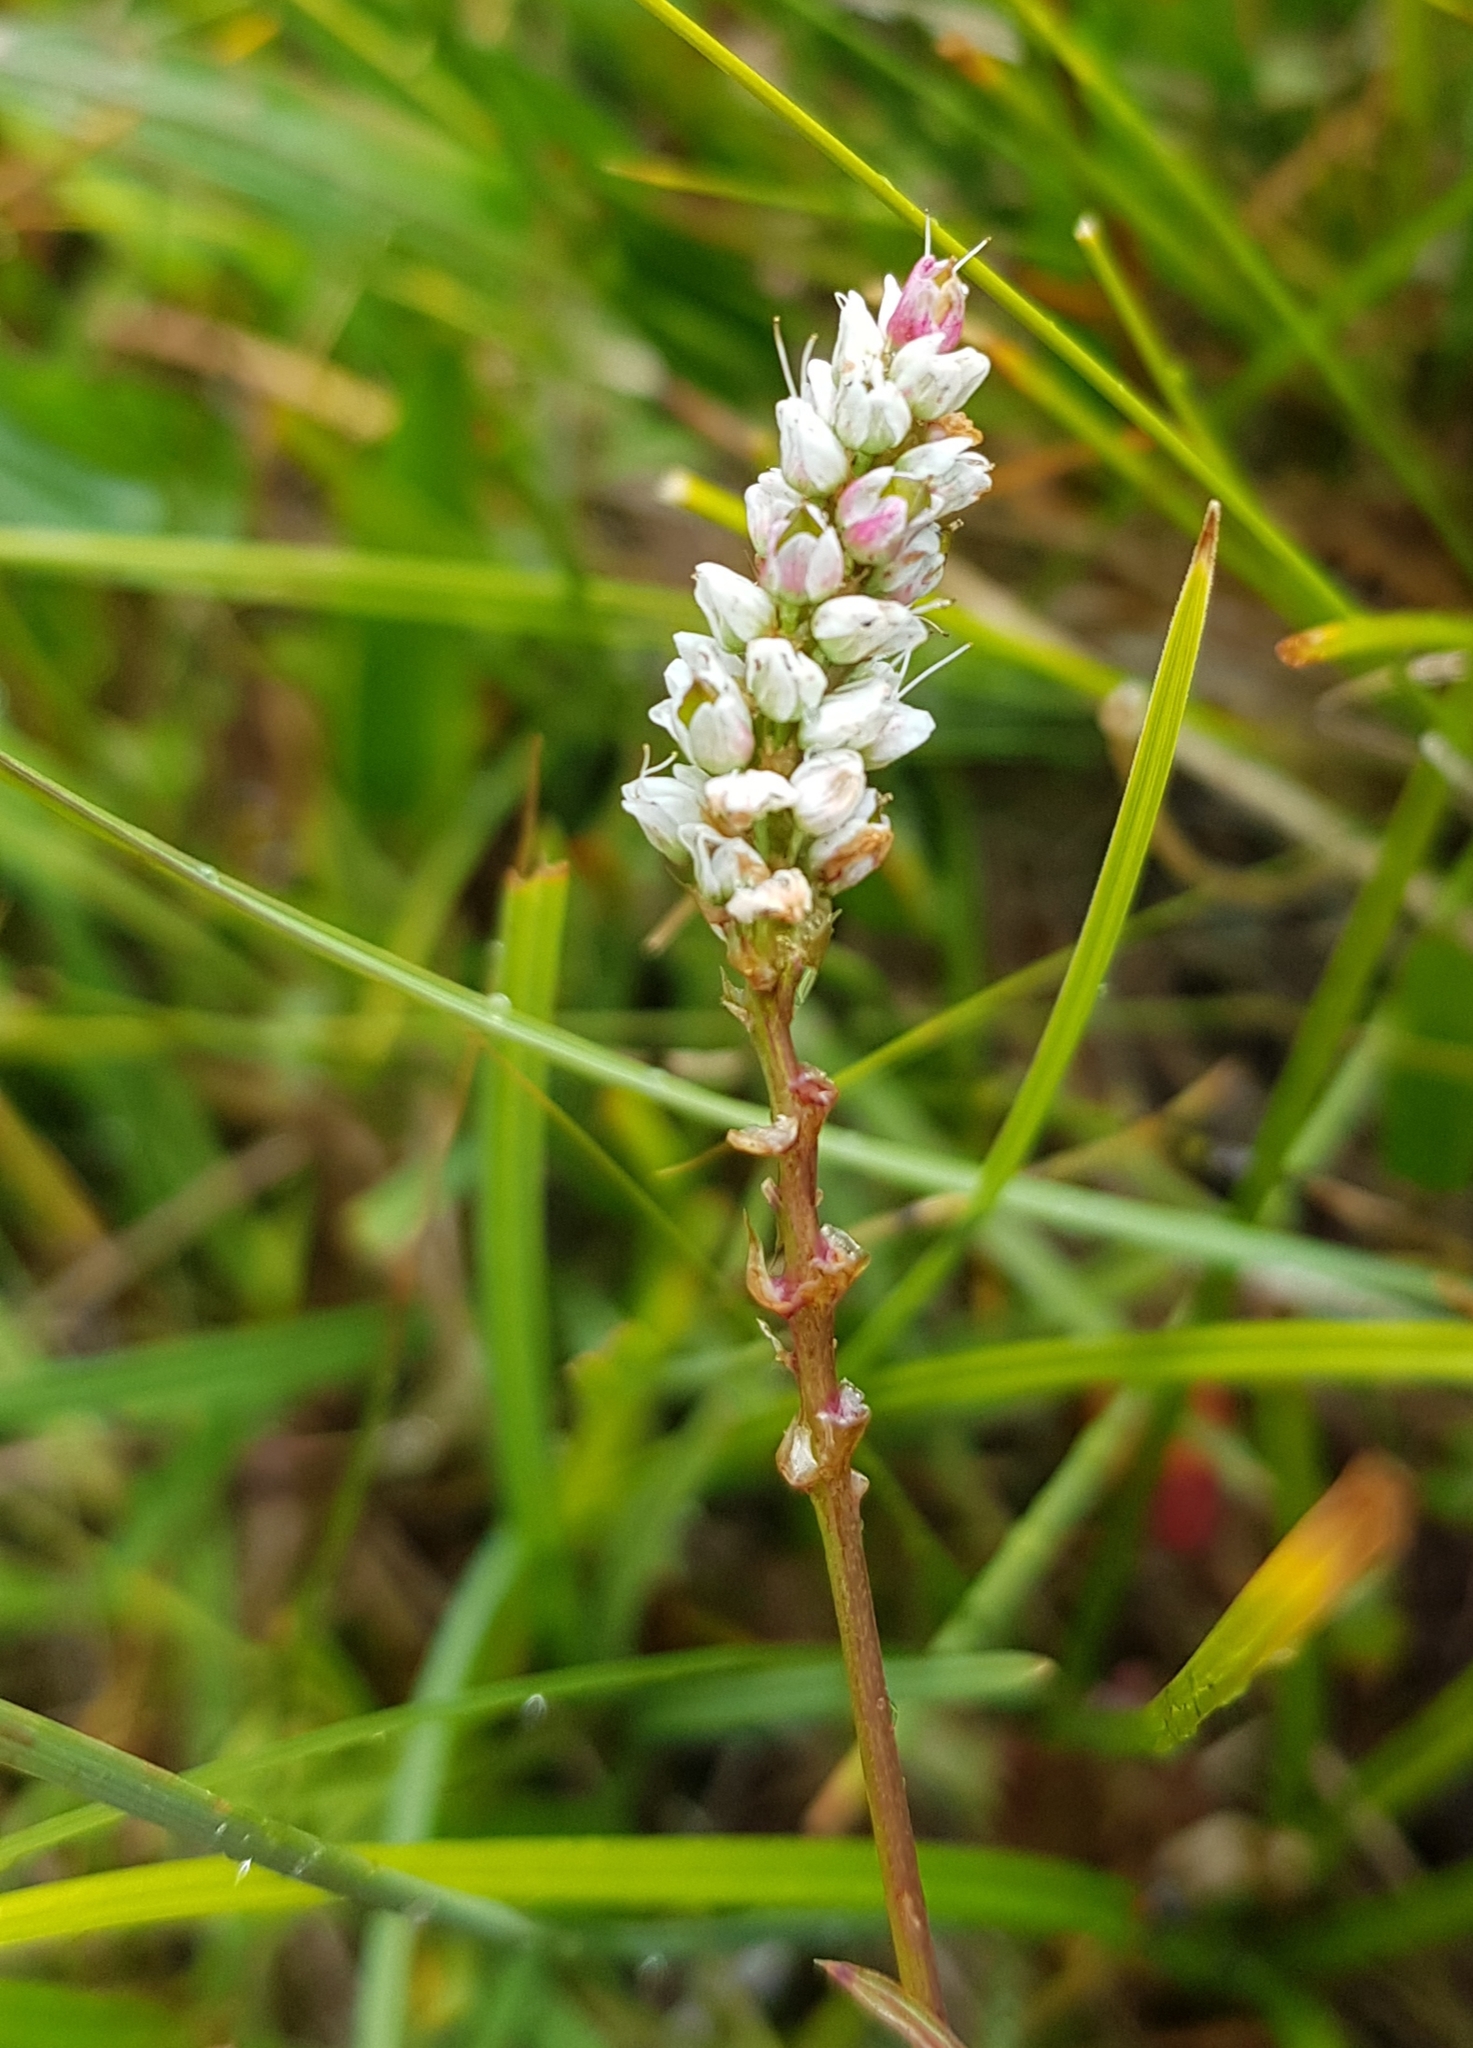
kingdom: Plantae
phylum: Tracheophyta
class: Magnoliopsida
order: Caryophyllales
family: Polygonaceae
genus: Bistorta
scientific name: Bistorta vivipara
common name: Alpine bistort
